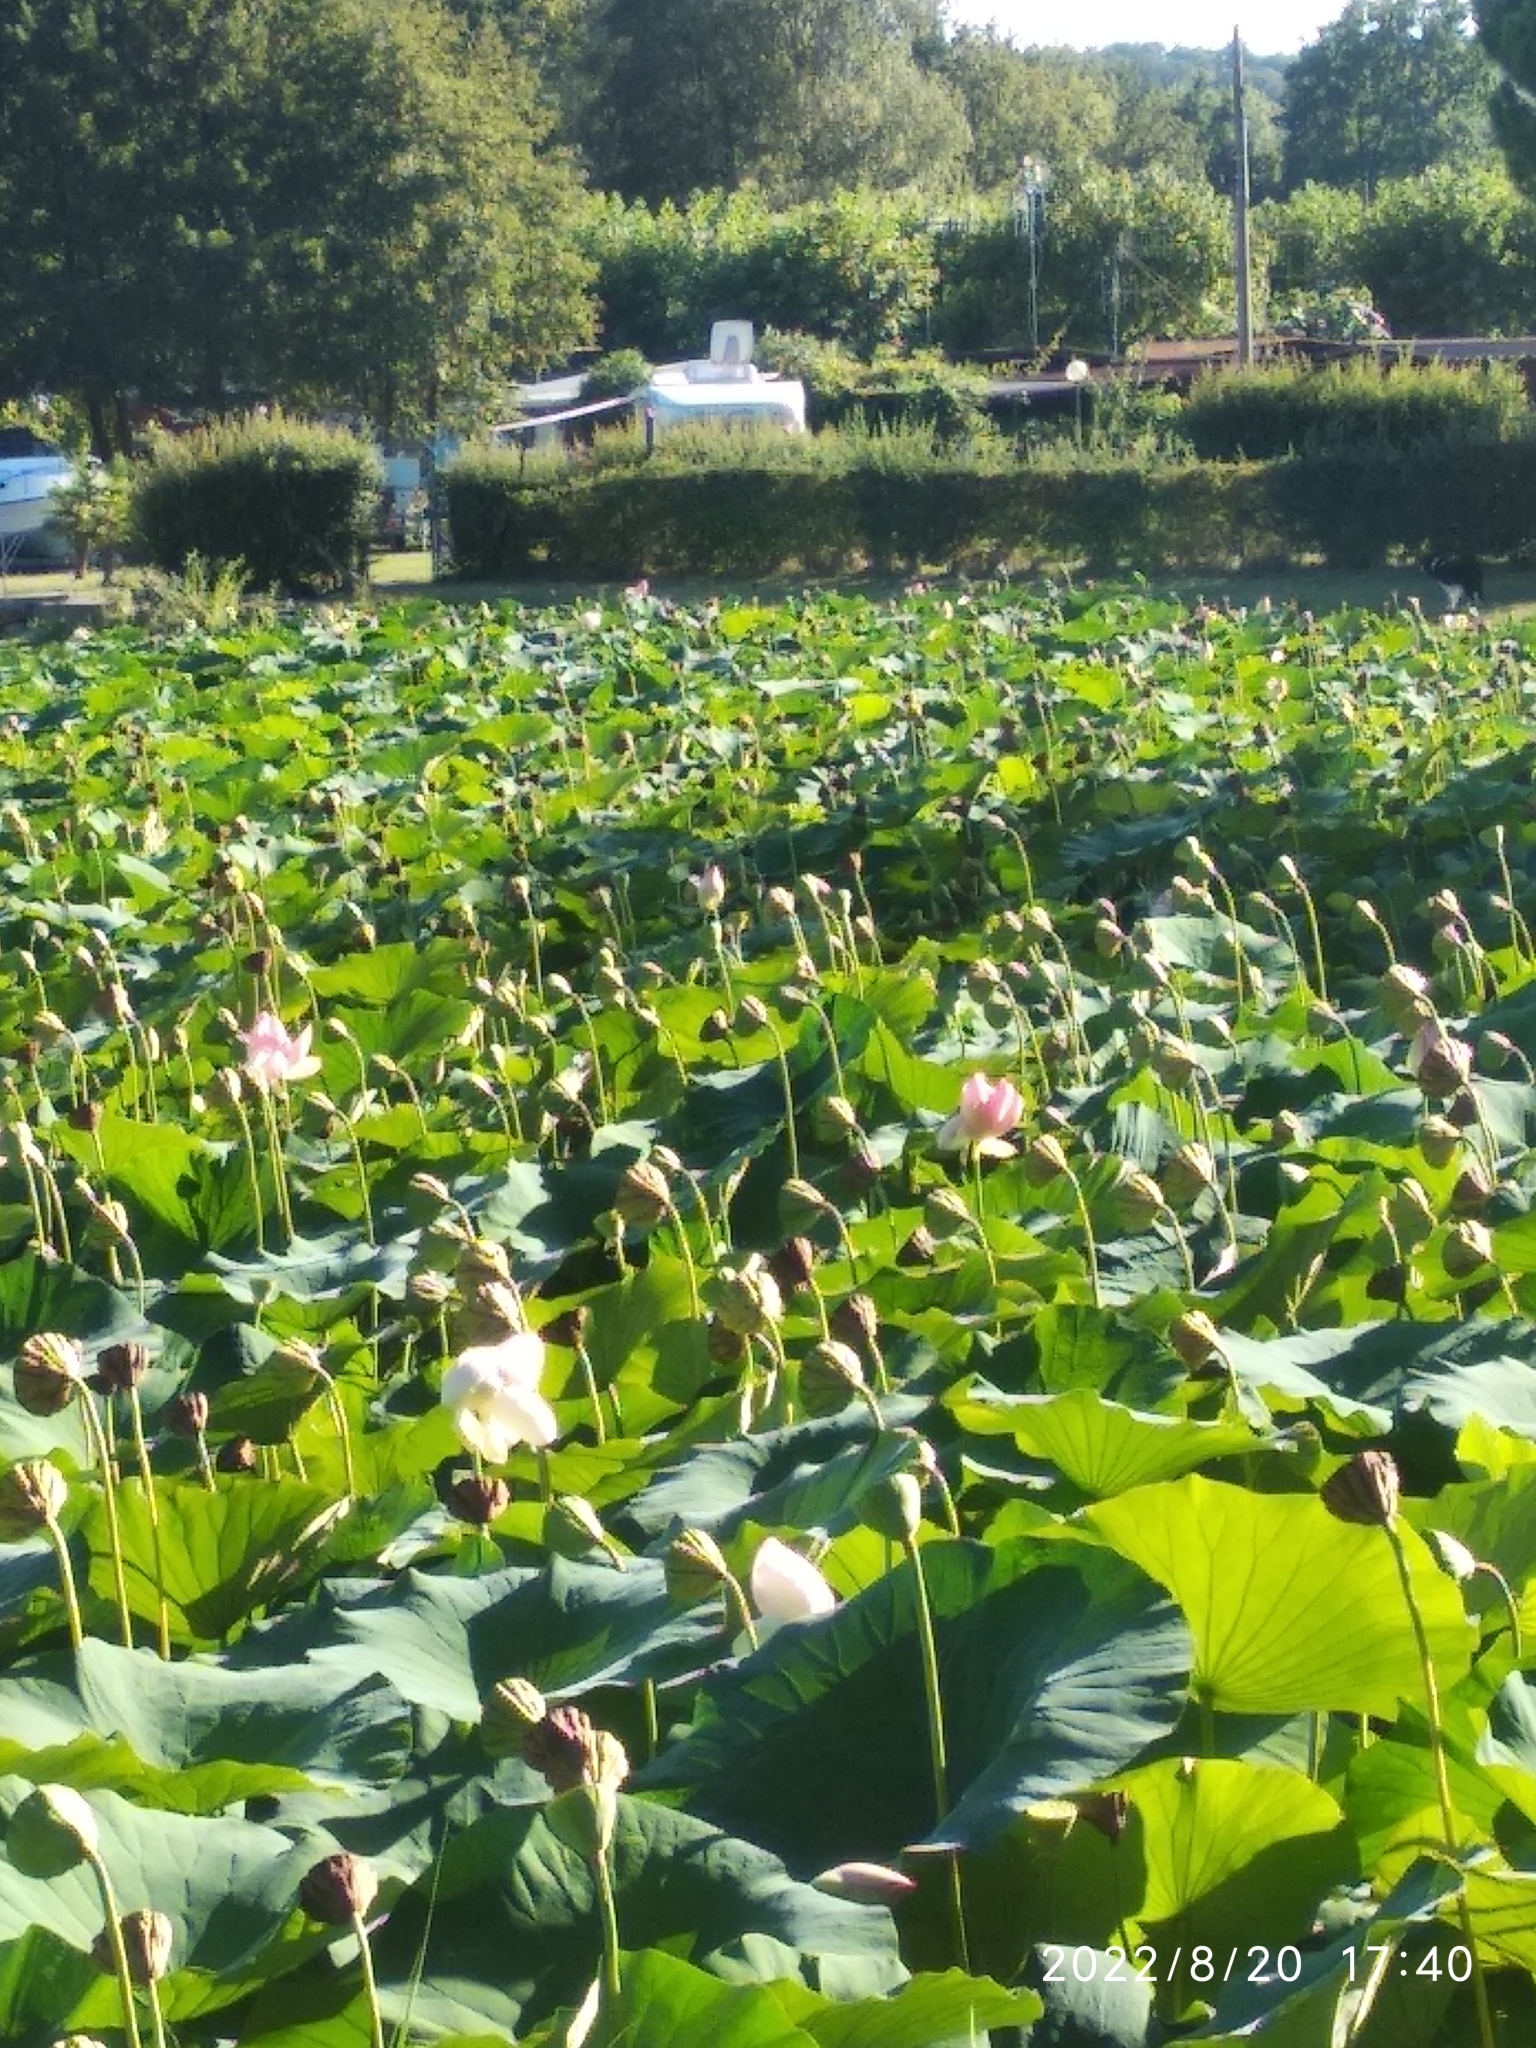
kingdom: Plantae
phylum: Tracheophyta
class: Magnoliopsida
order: Proteales
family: Nelumbonaceae
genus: Nelumbo
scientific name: Nelumbo nucifera
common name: Sacred lotus
